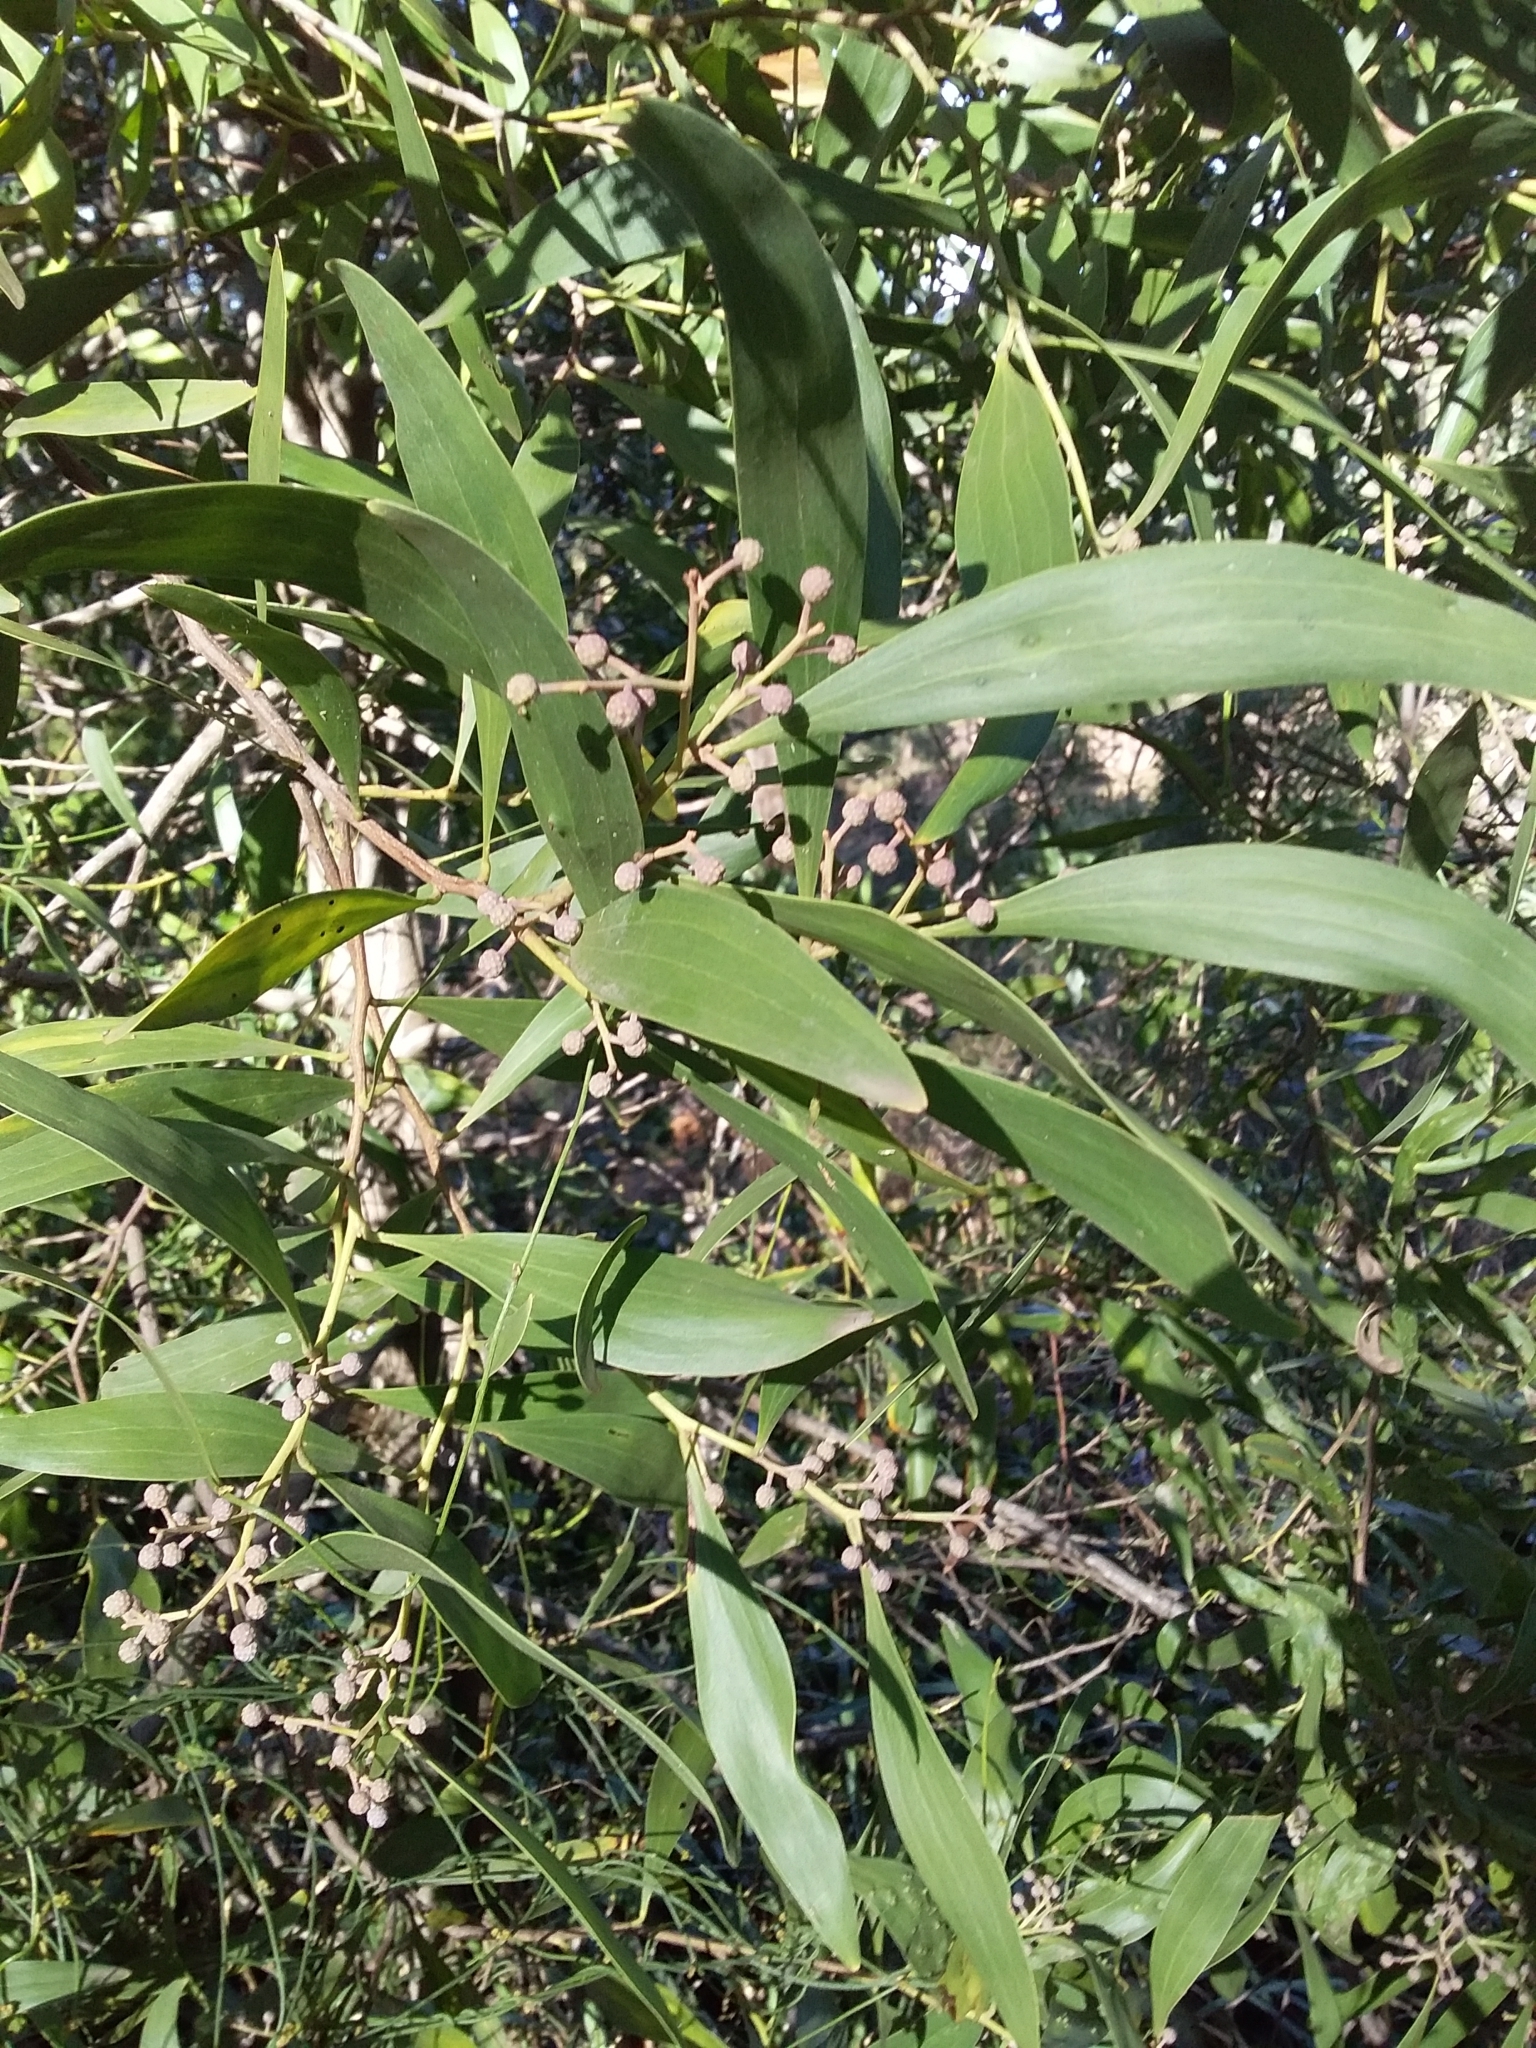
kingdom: Plantae
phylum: Tracheophyta
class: Magnoliopsida
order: Fabales
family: Fabaceae
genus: Acacia
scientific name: Acacia melanoxylon
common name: Blackwood
